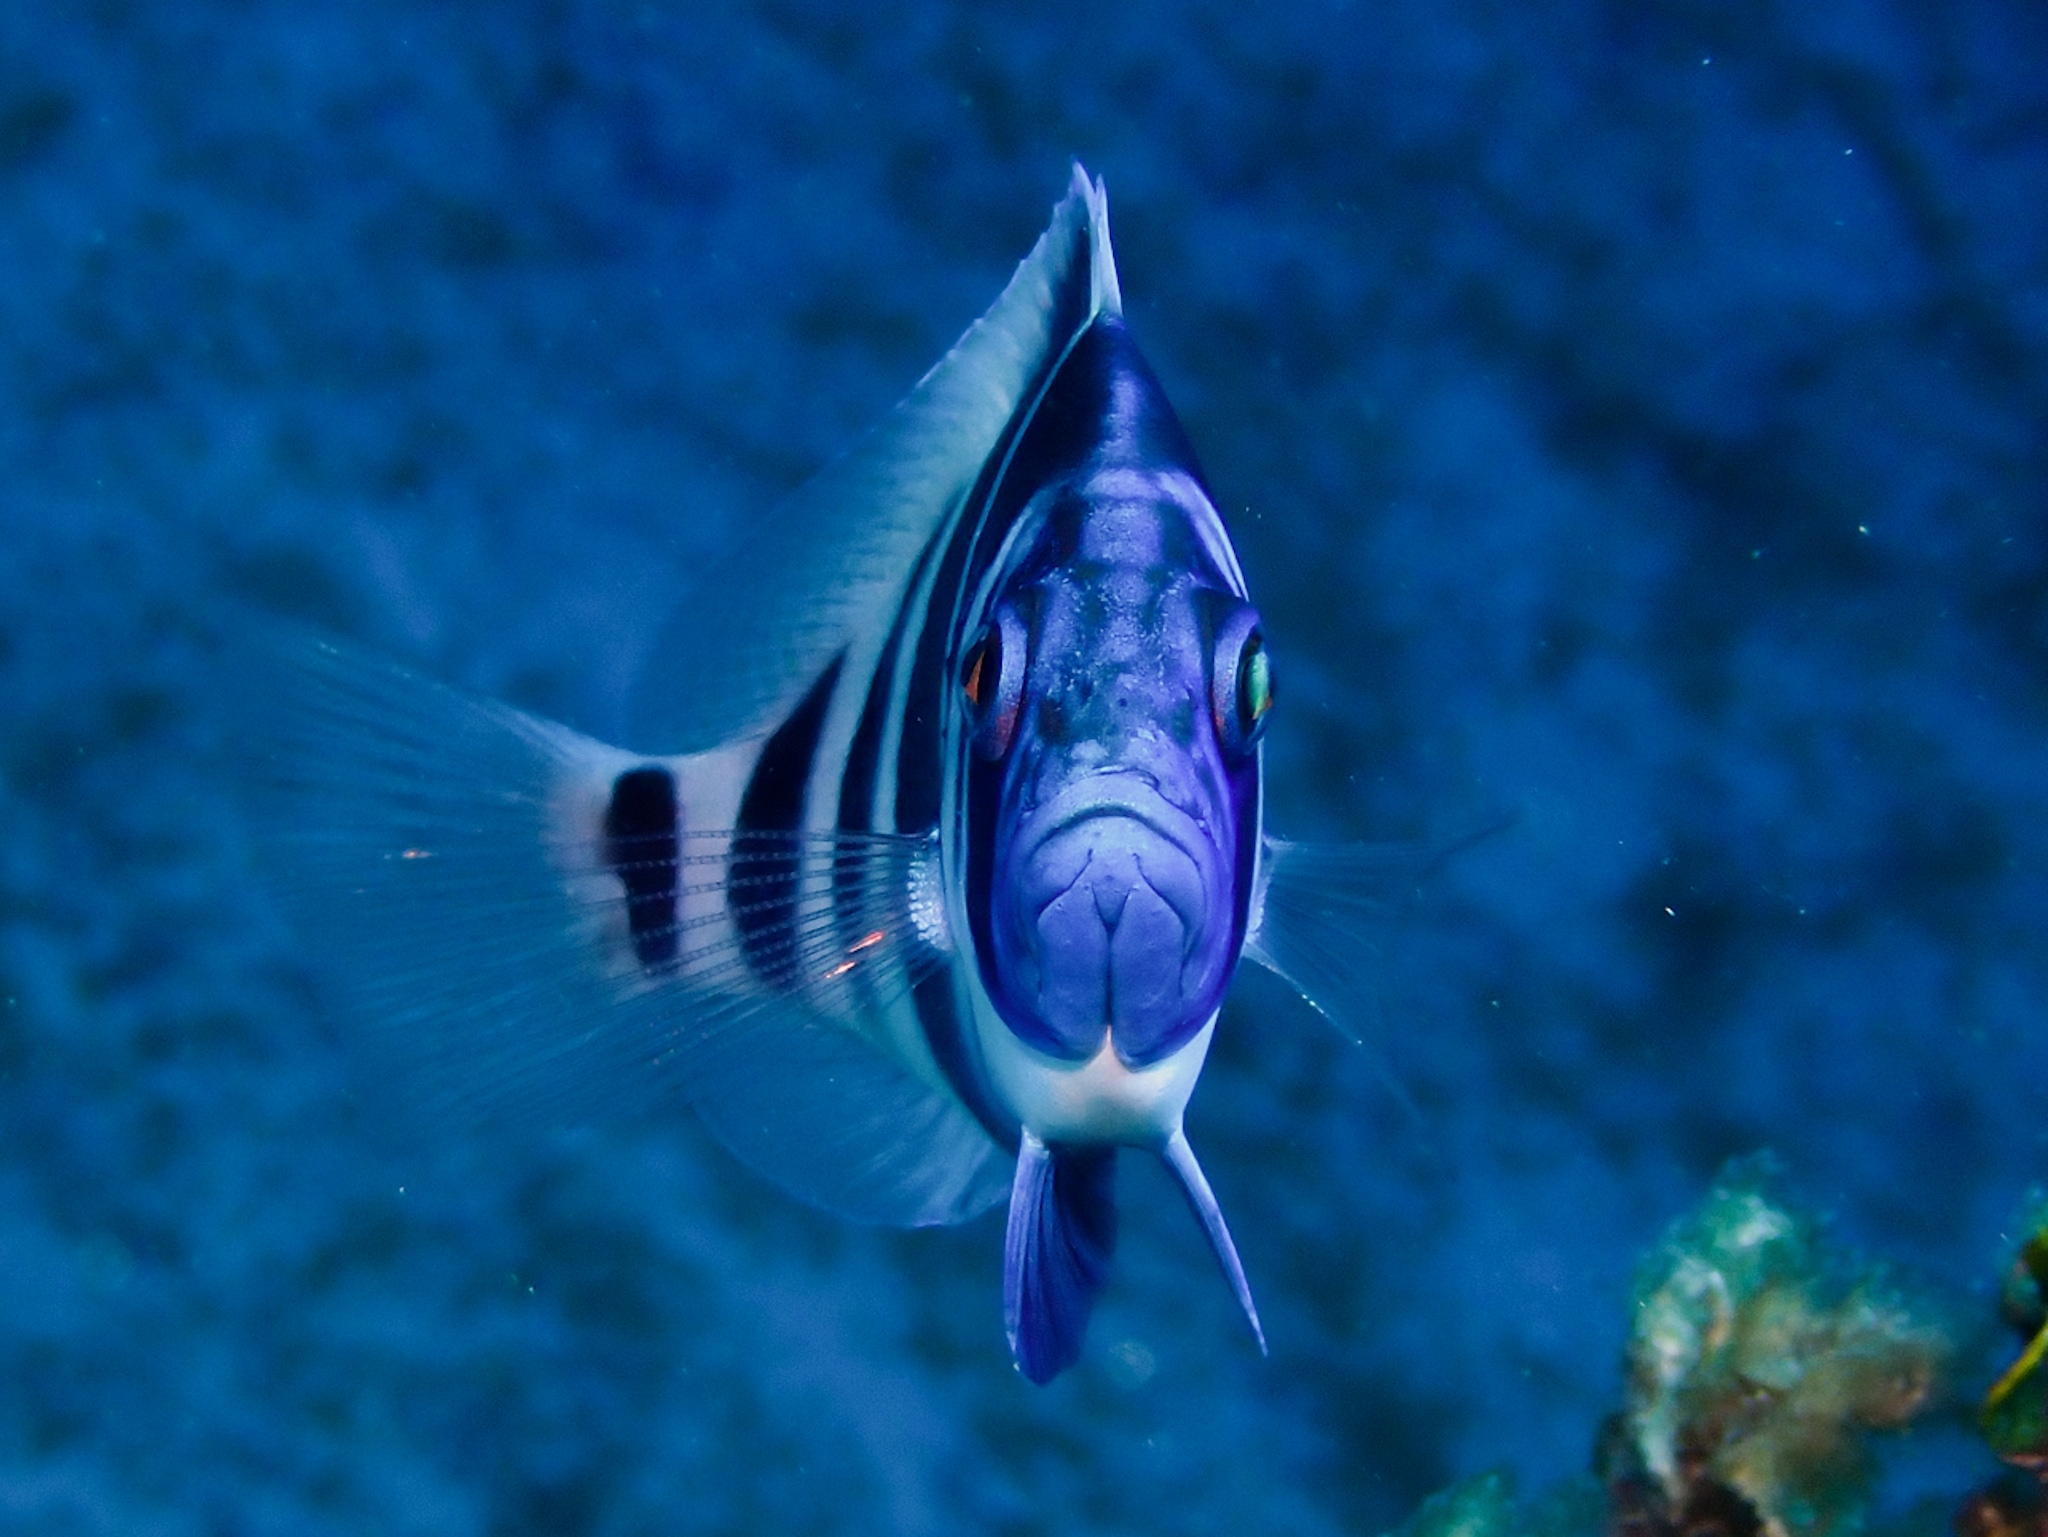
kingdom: Animalia
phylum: Chordata
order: Perciformes
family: Serranidae
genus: Hypoplectrus
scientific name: Hypoplectrus indigo
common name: Indigo hamlet
